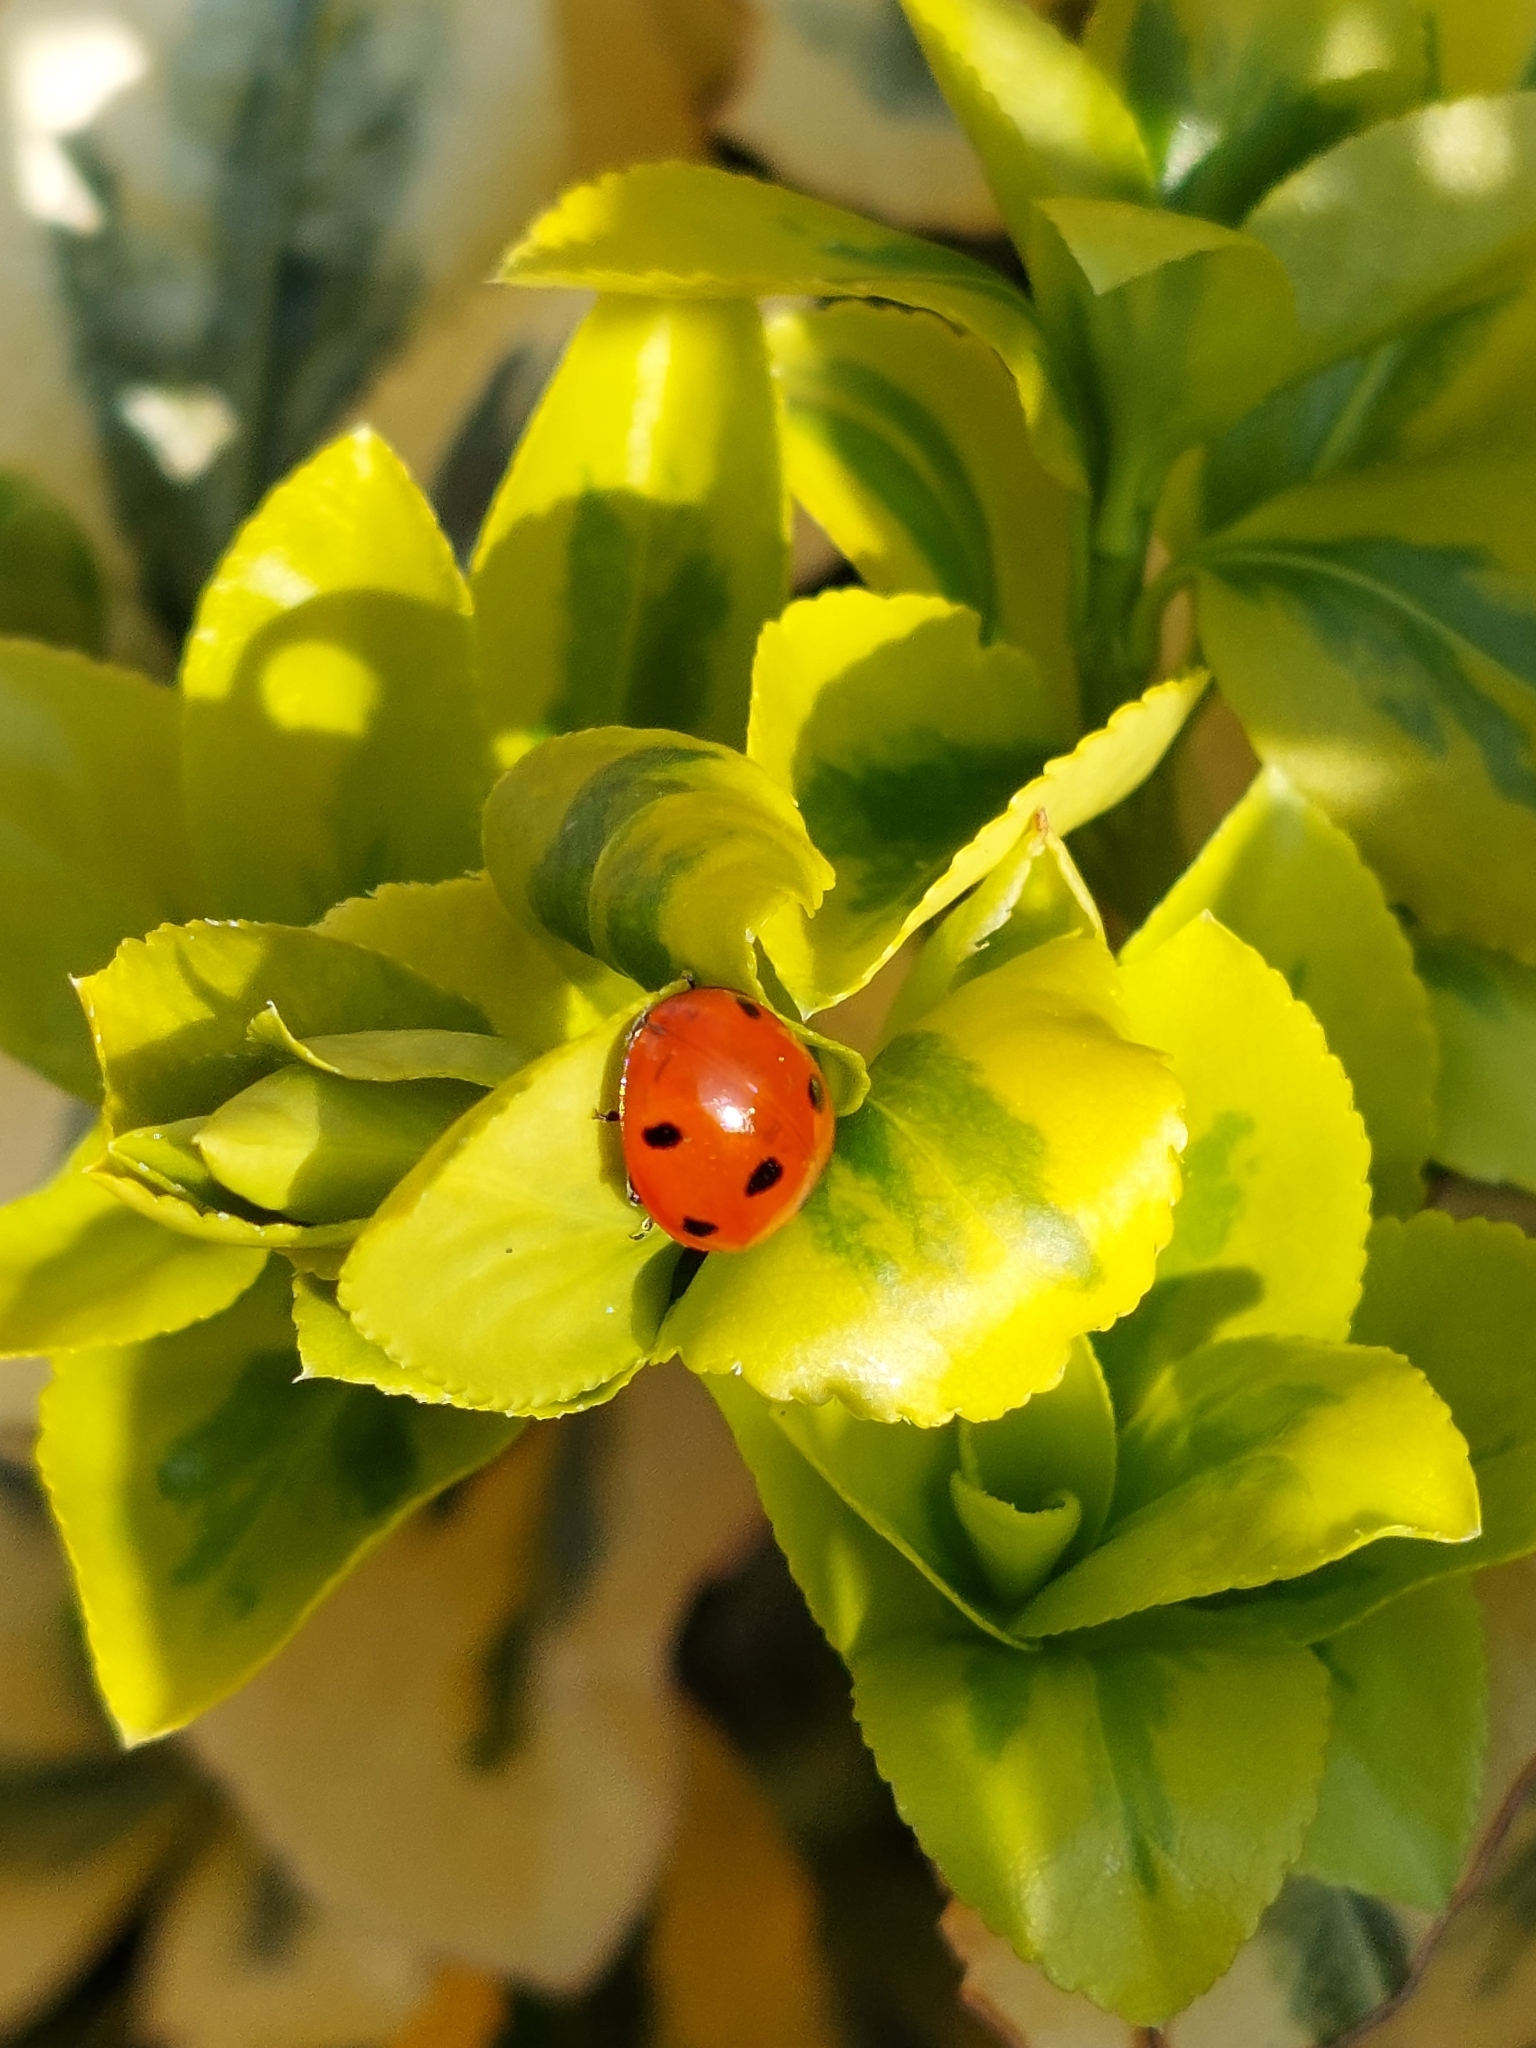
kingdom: Animalia
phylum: Arthropoda
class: Insecta
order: Coleoptera
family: Coccinellidae
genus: Coccinella
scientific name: Coccinella septempunctata
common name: Sevenspotted lady beetle
